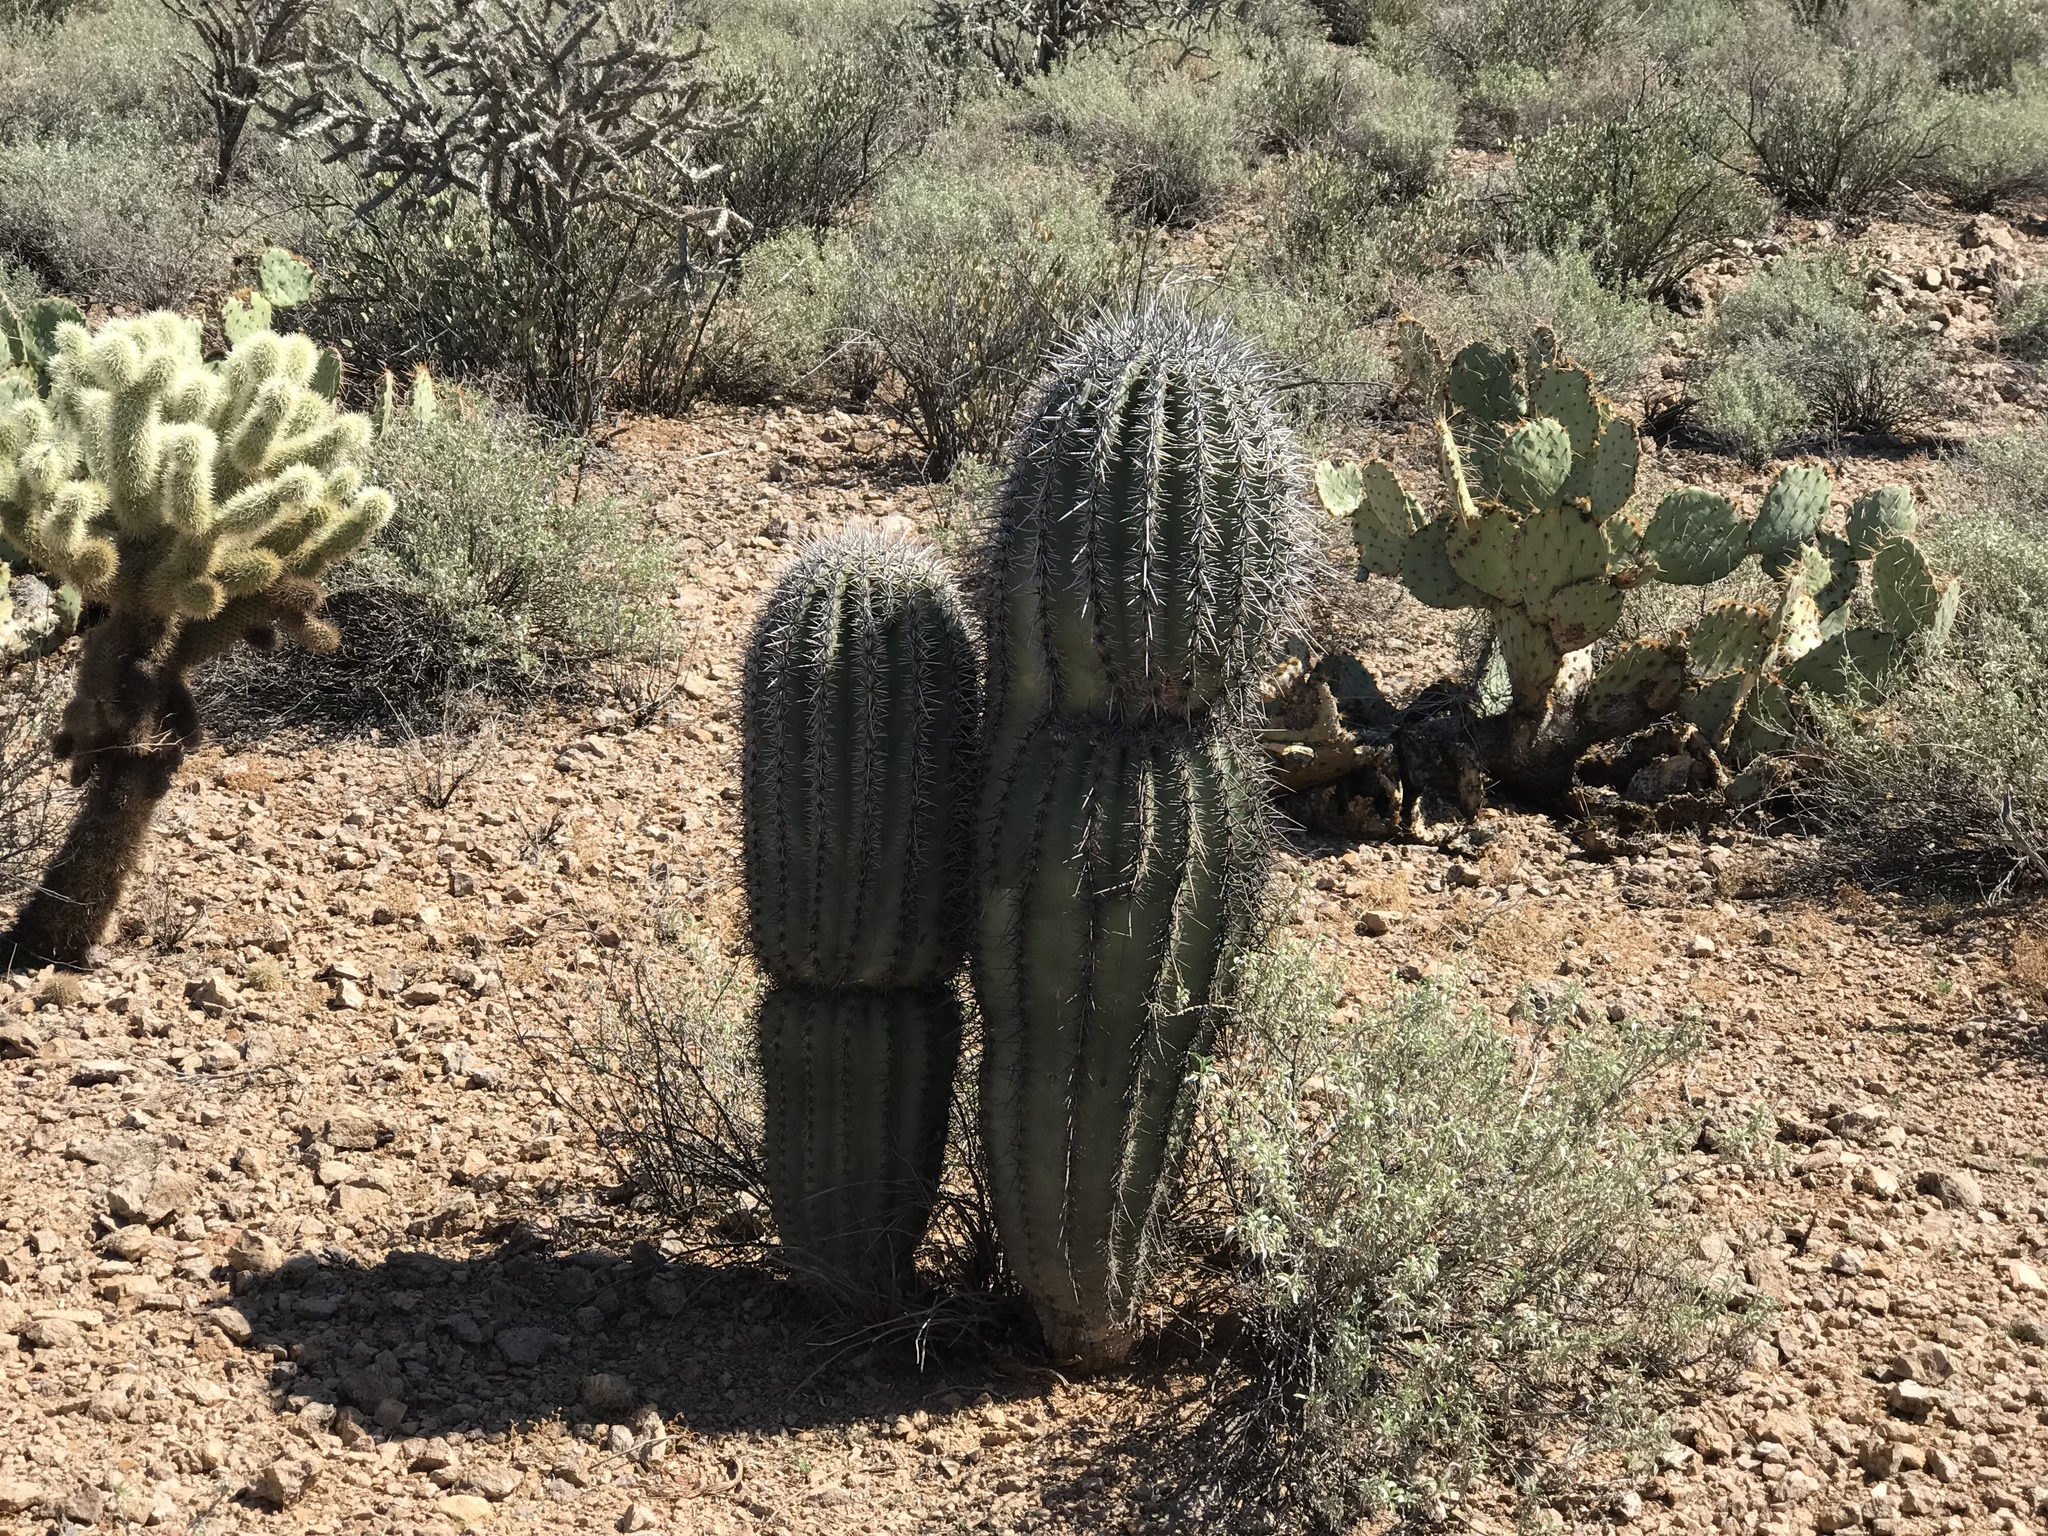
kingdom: Plantae
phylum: Tracheophyta
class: Magnoliopsida
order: Caryophyllales
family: Cactaceae
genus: Carnegiea
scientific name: Carnegiea gigantea
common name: Saguaro
